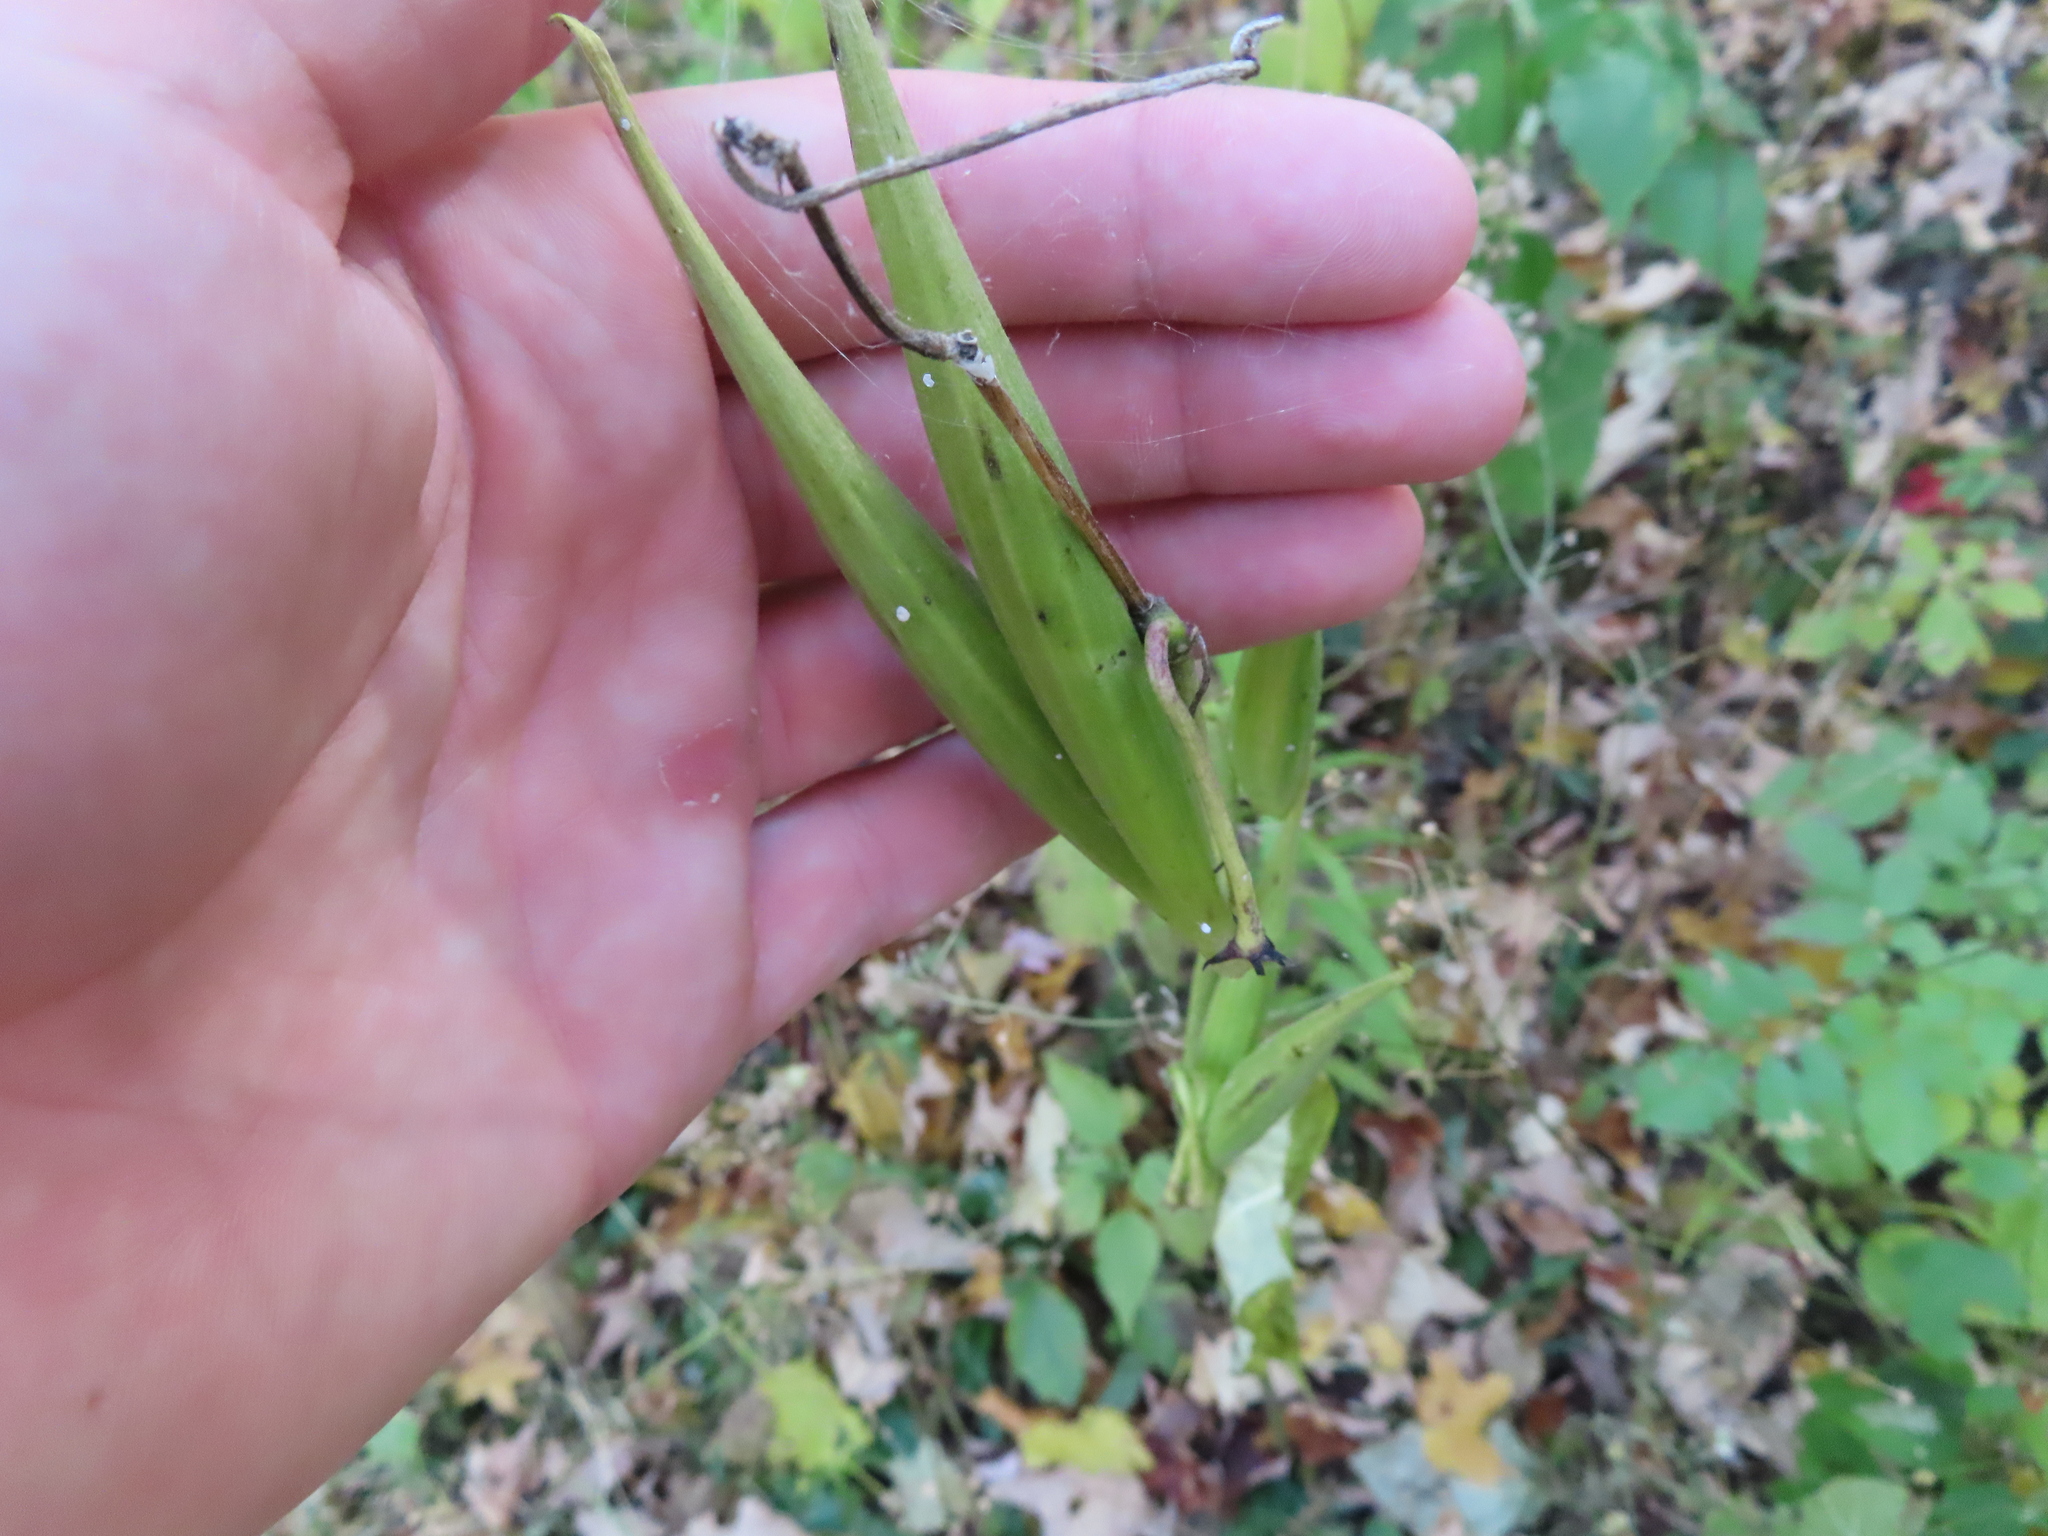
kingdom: Plantae
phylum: Tracheophyta
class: Magnoliopsida
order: Gentianales
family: Apocynaceae
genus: Asclepias
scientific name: Asclepias exaltata
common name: Poke milkweed
